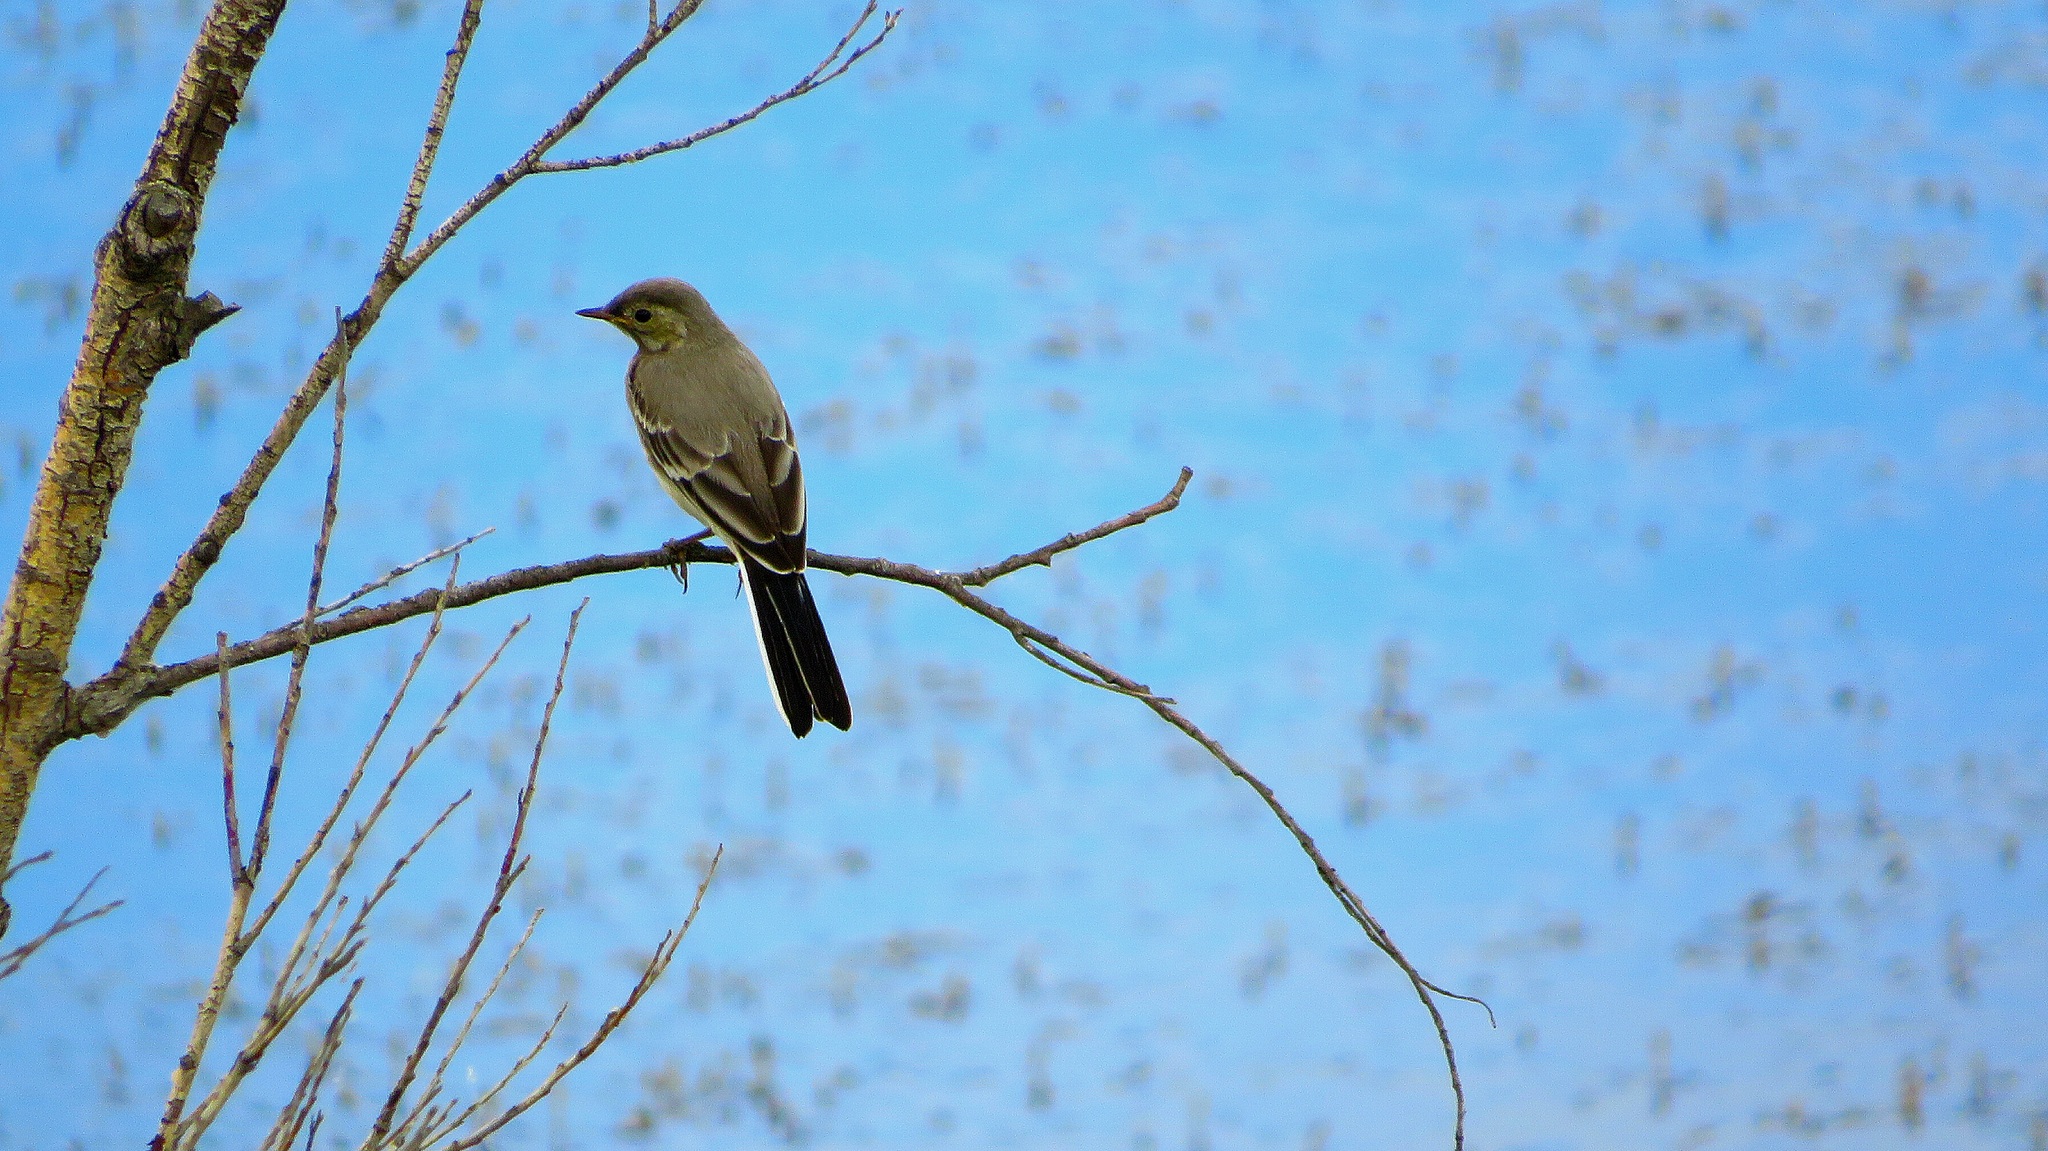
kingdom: Animalia
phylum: Chordata
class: Aves
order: Passeriformes
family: Motacillidae
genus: Motacilla
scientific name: Motacilla alba
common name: White wagtail
